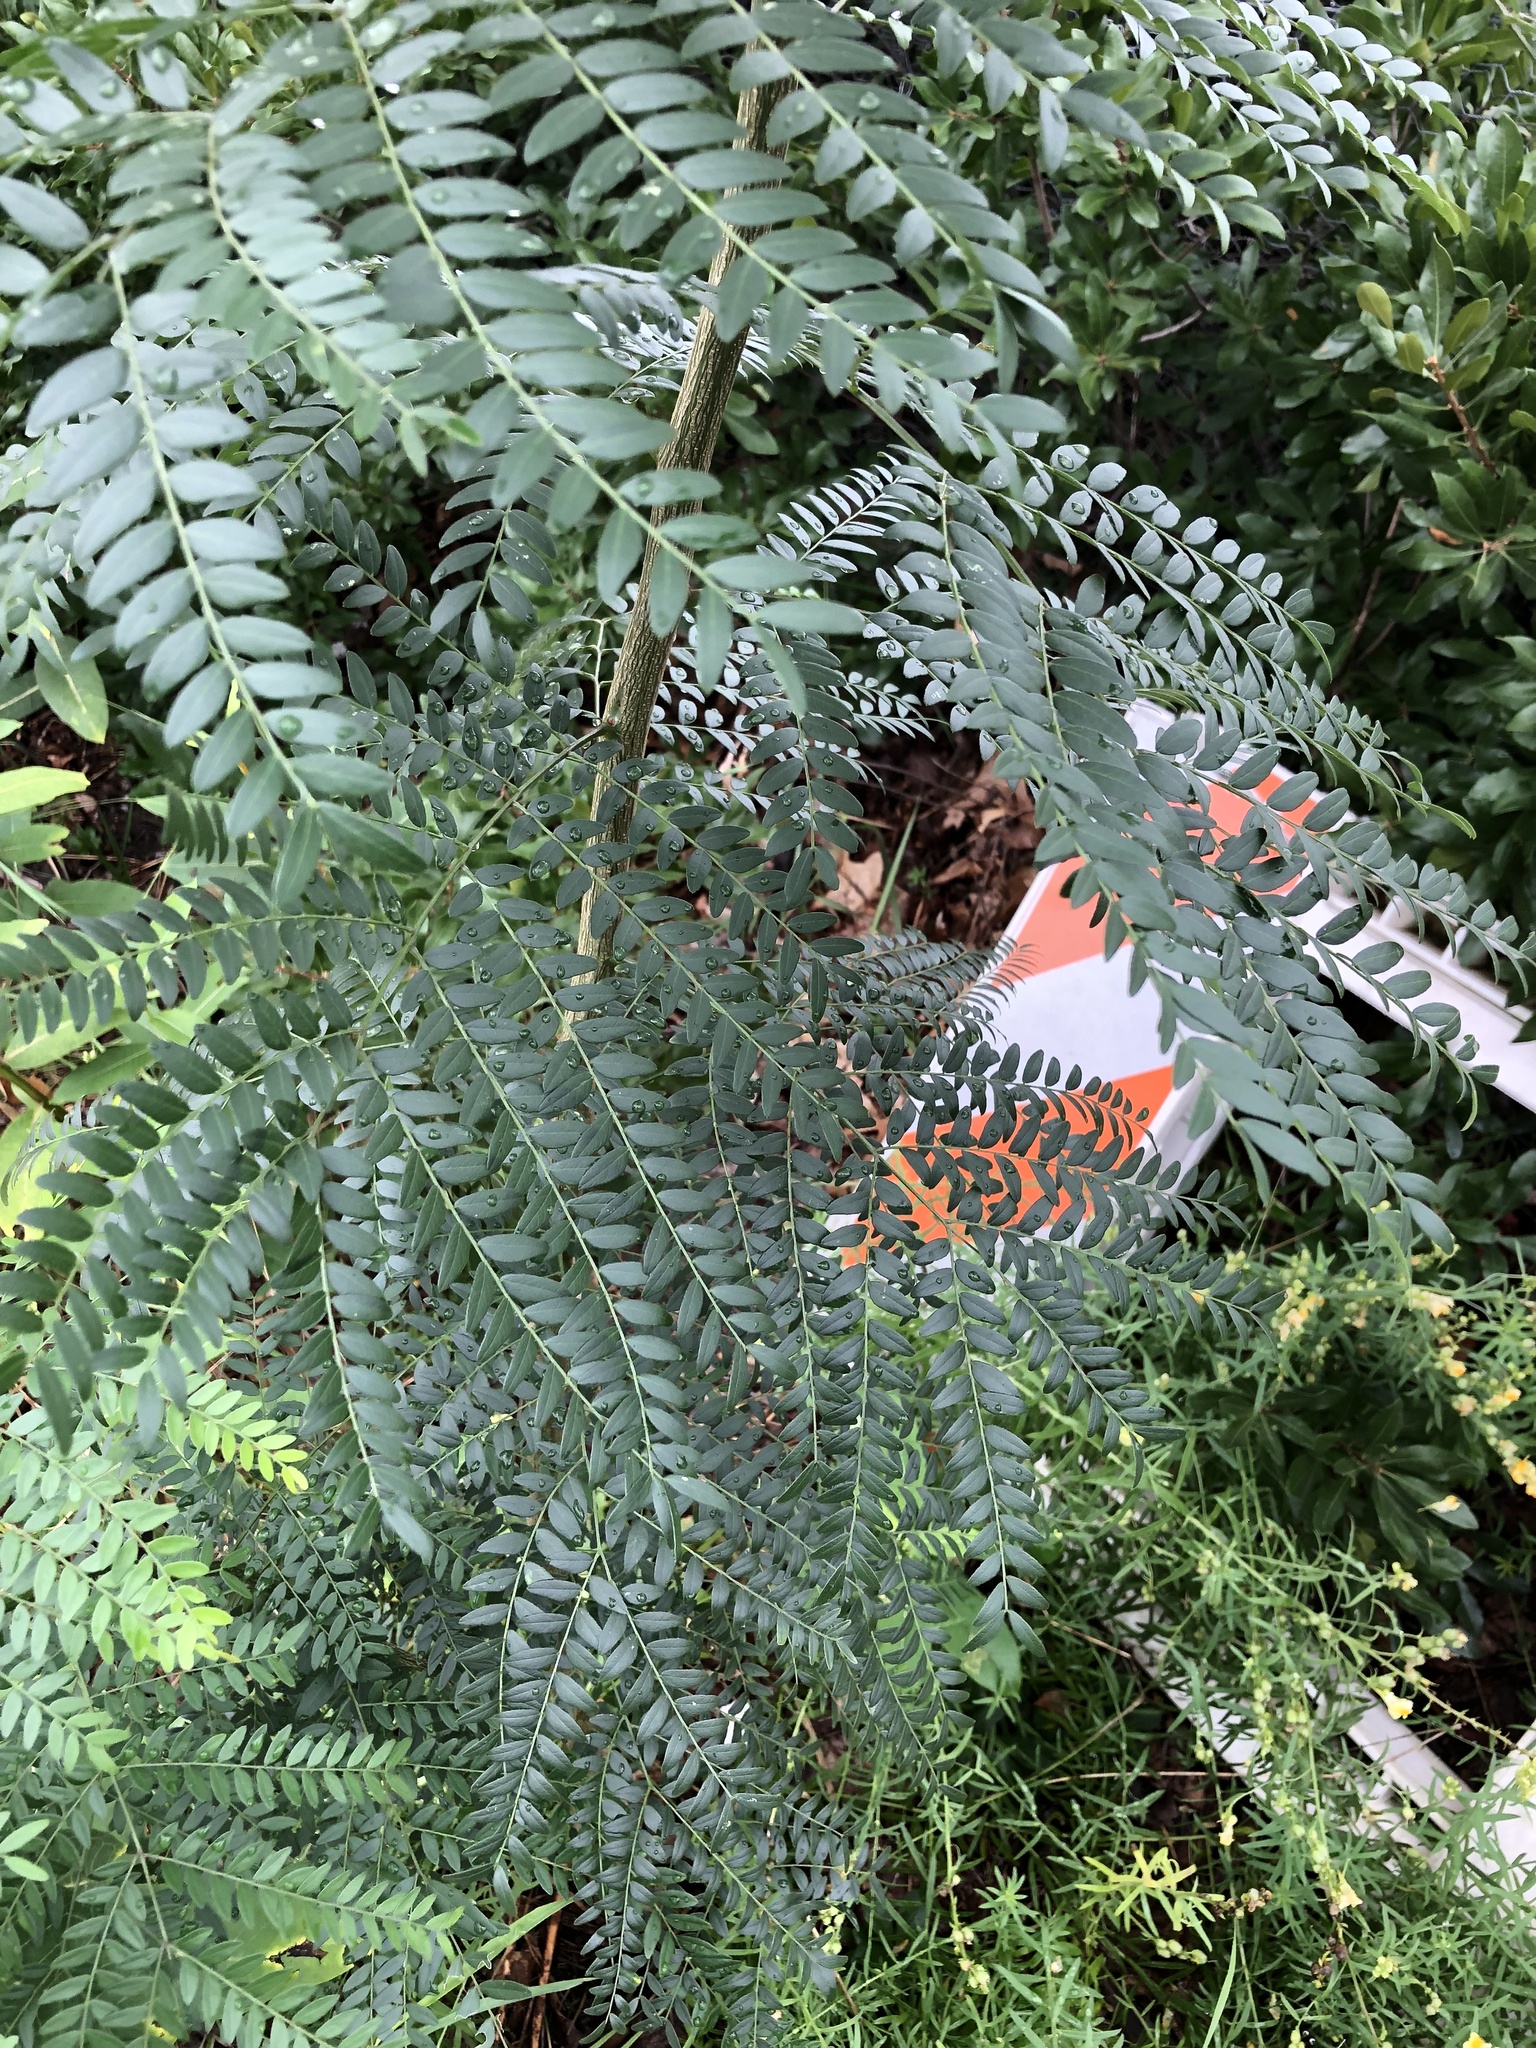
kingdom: Plantae
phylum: Tracheophyta
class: Magnoliopsida
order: Fabales
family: Fabaceae
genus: Gleditsia
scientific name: Gleditsia triacanthos
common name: Common honeylocust
